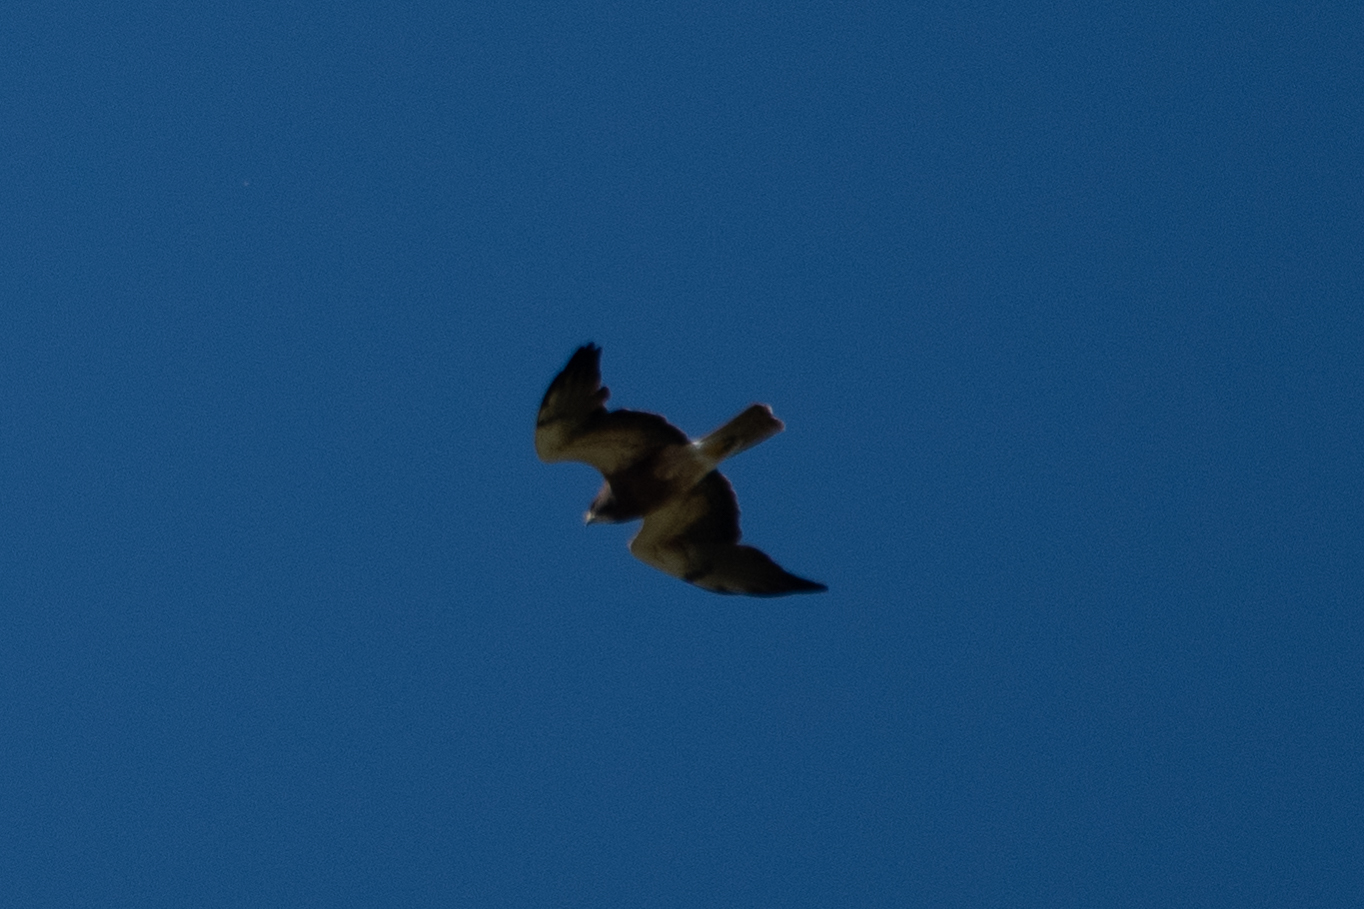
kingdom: Animalia
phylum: Chordata
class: Aves
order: Accipitriformes
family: Accipitridae
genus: Buteo
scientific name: Buteo swainsoni
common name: Swainson's hawk
